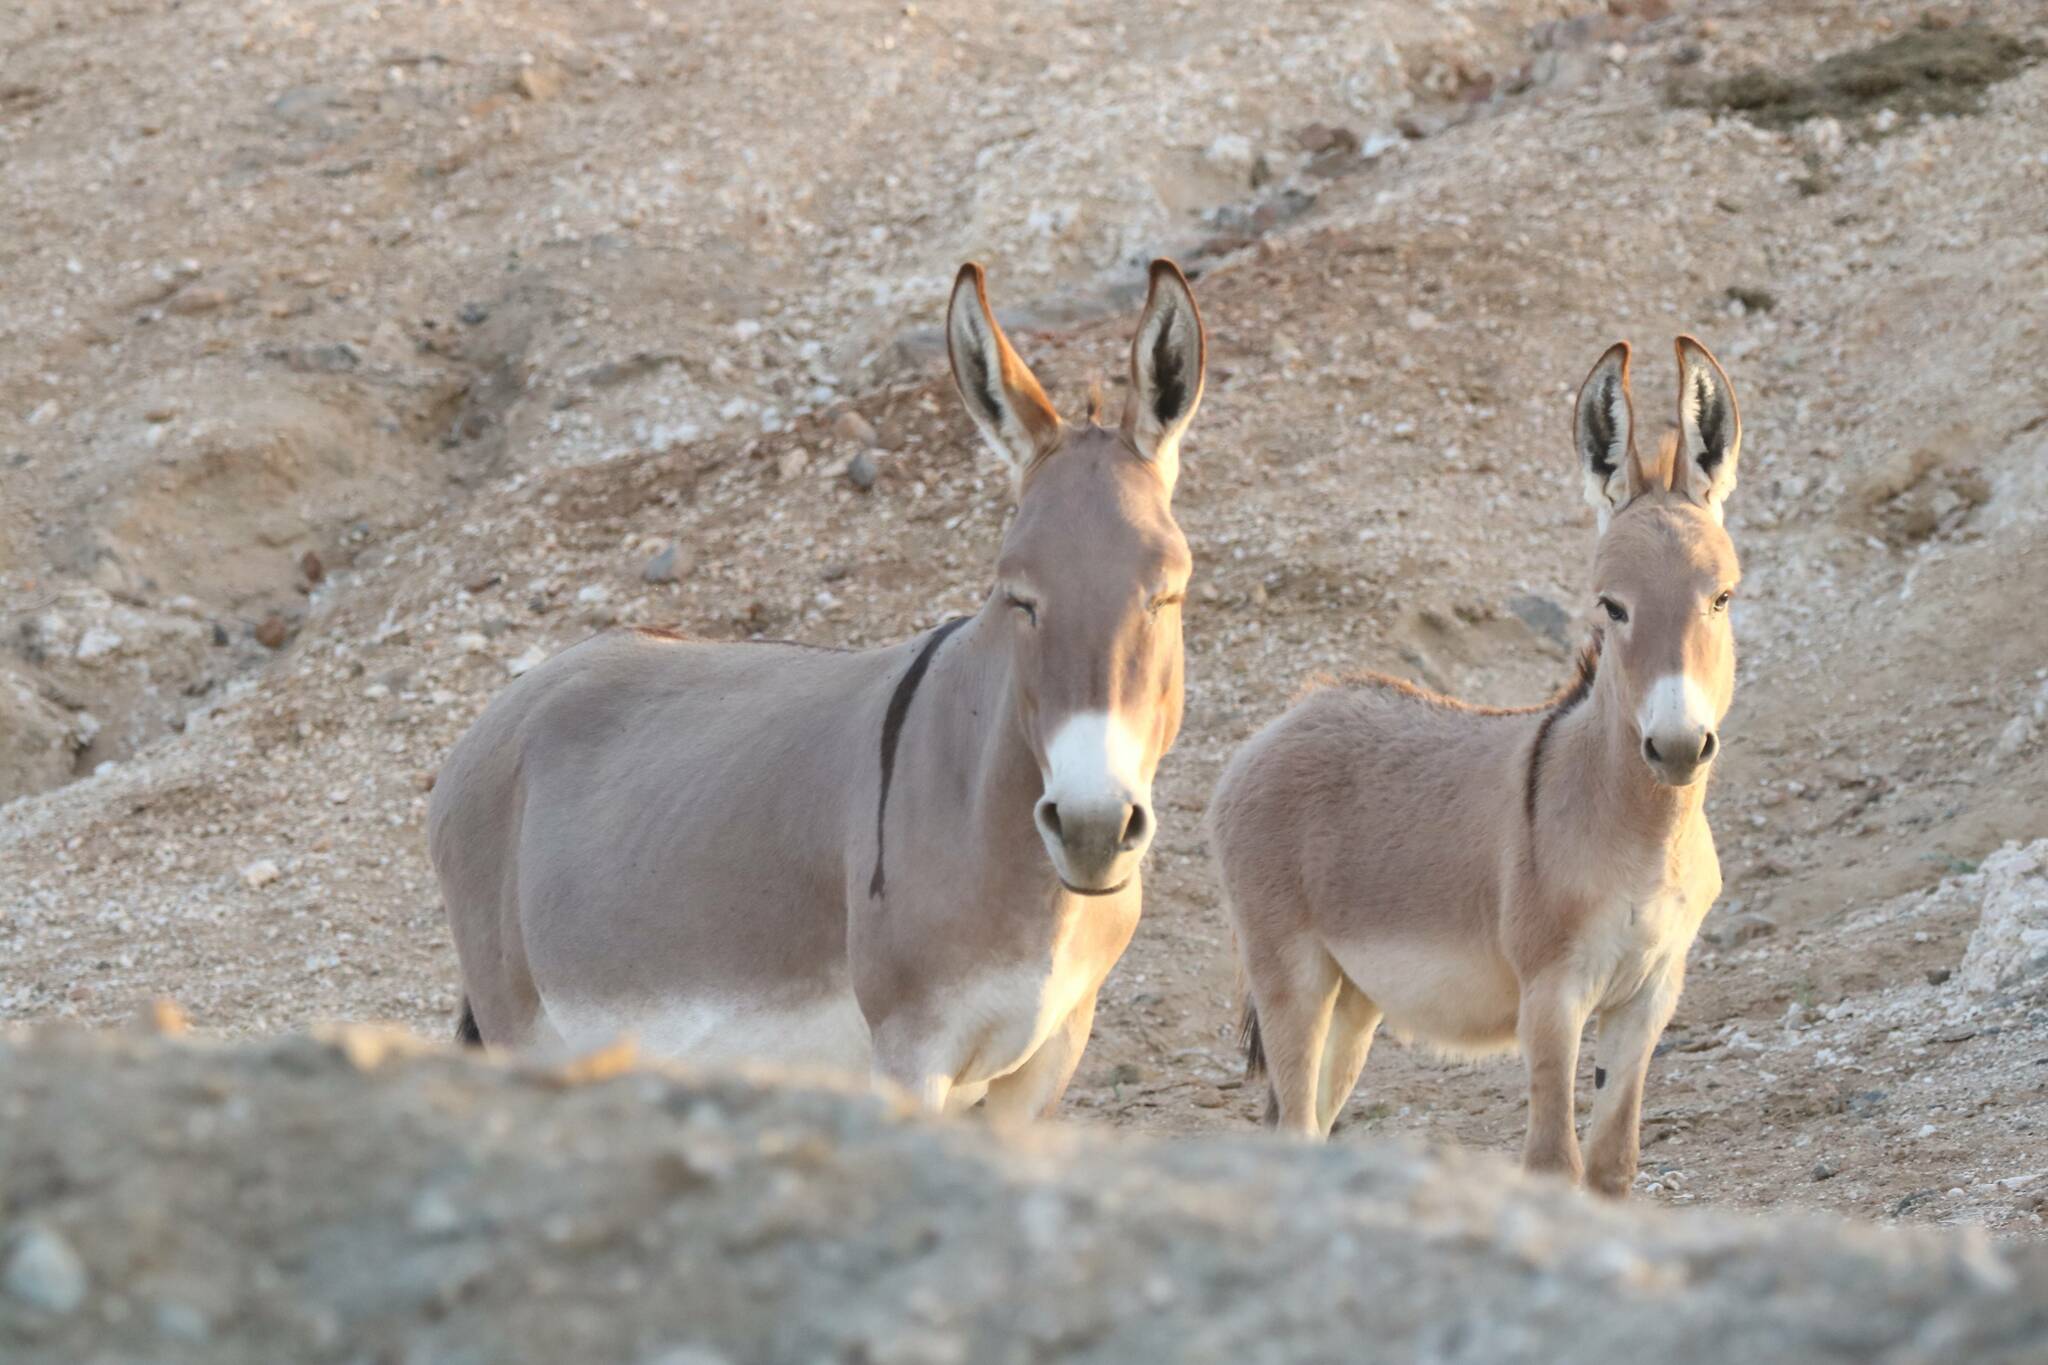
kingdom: Animalia
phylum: Chordata
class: Mammalia
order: Perissodactyla
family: Equidae
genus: Equus
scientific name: Equus asinus
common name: Ass
